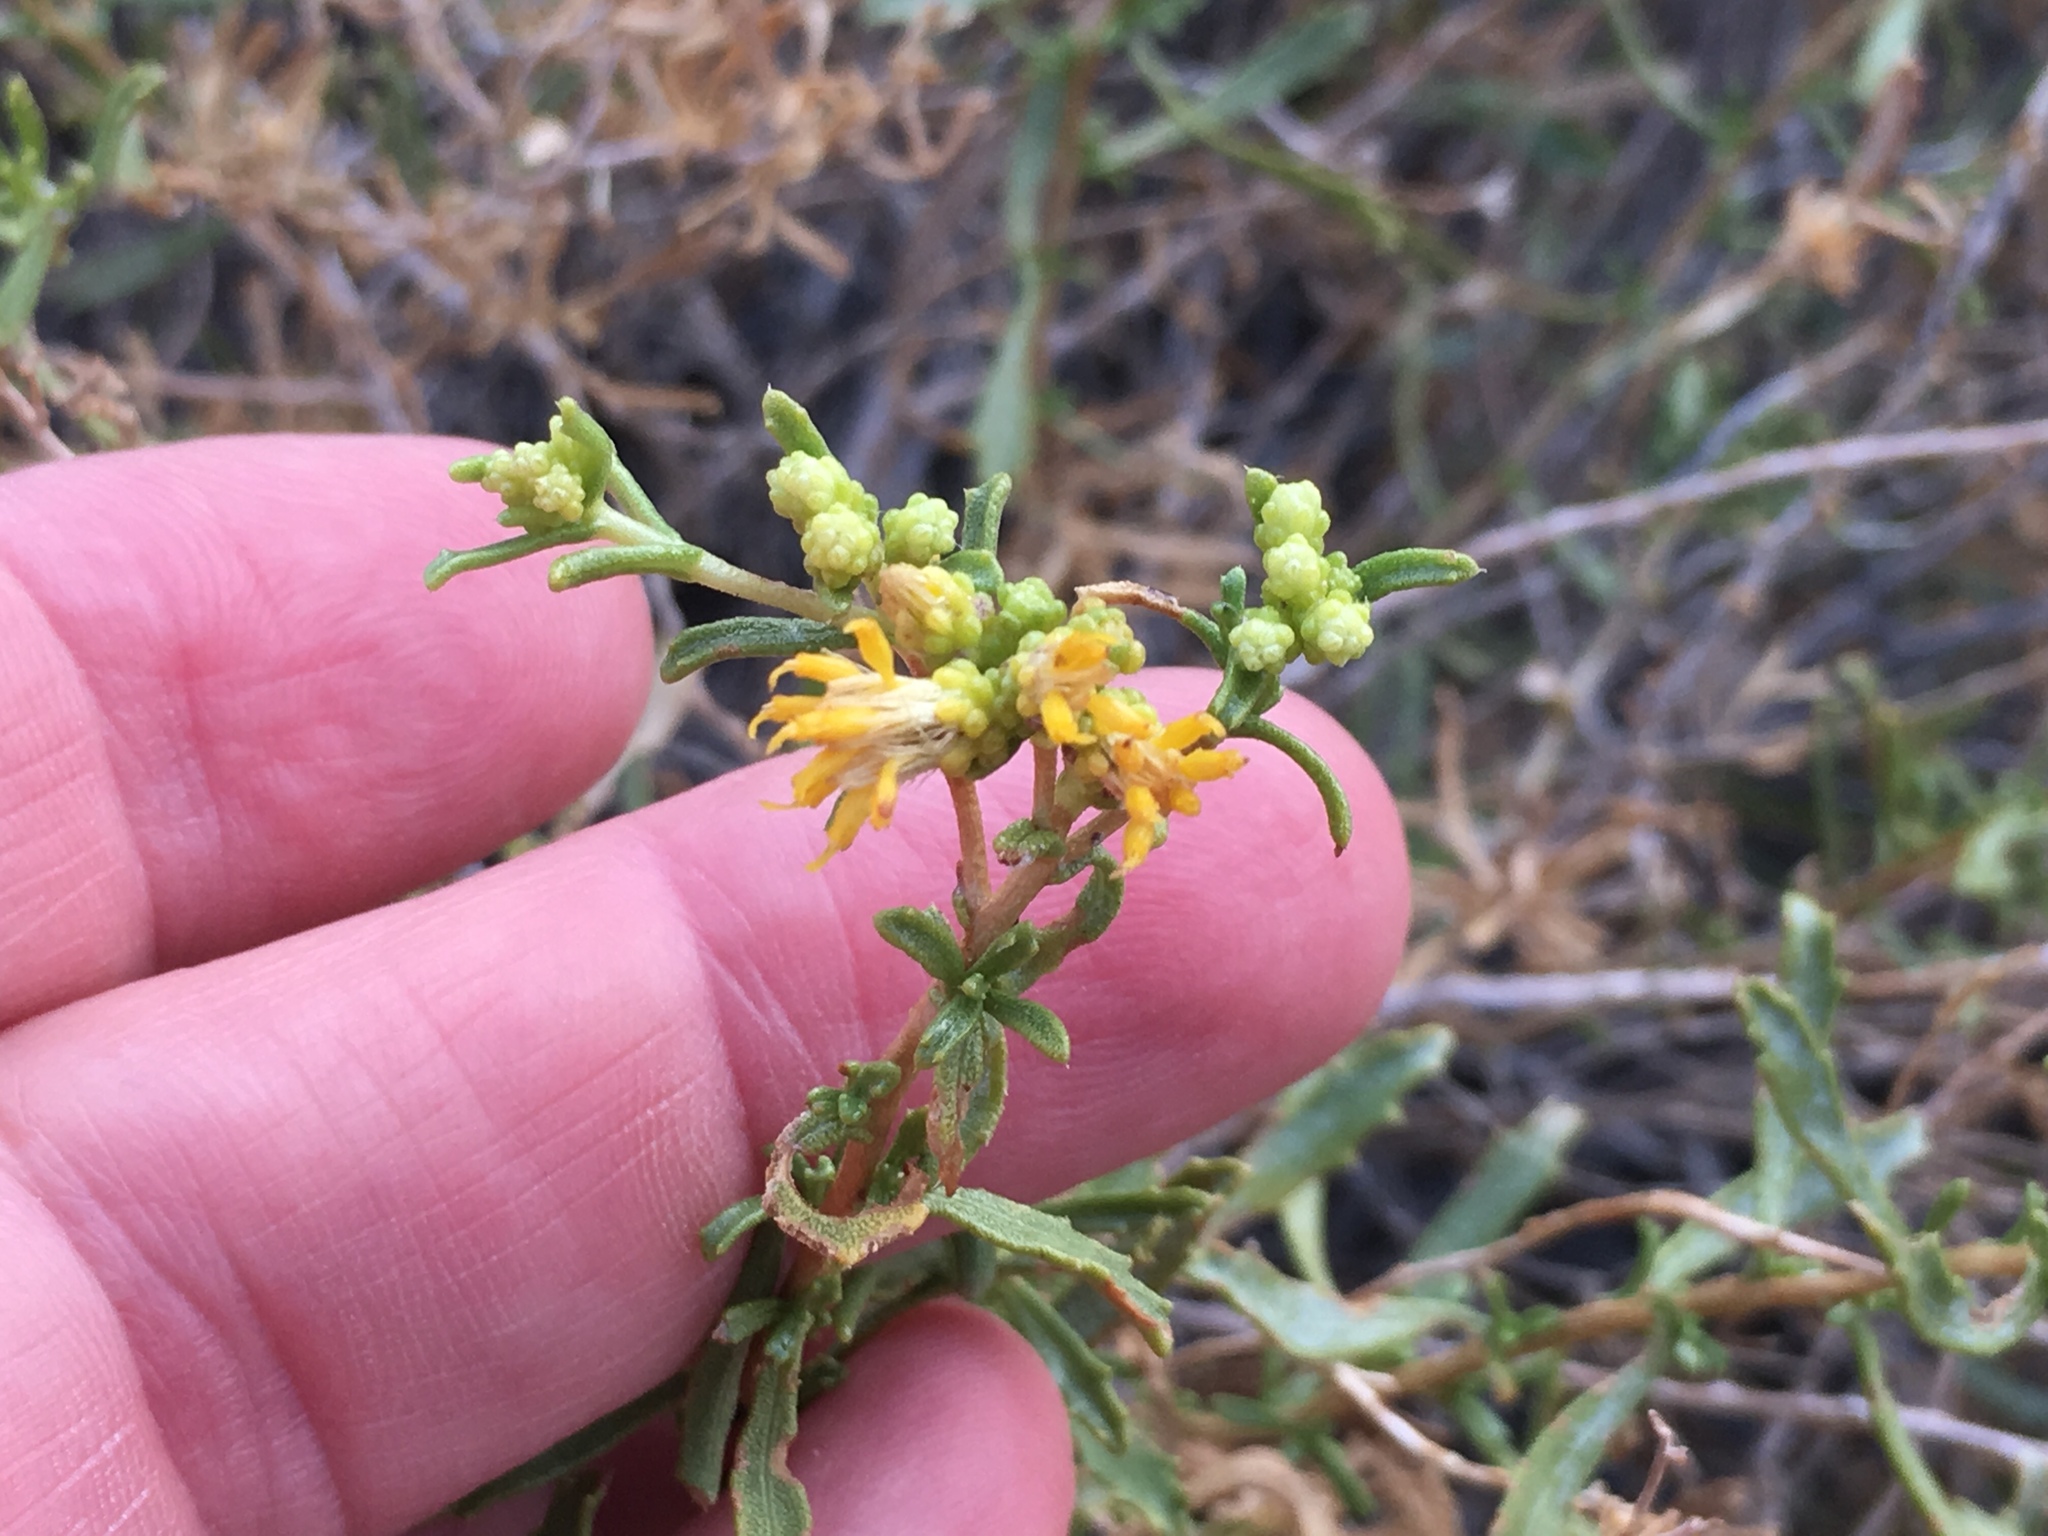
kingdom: Plantae
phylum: Tracheophyta
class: Magnoliopsida
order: Asterales
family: Asteraceae
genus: Isocoma
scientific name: Isocoma acradenia
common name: Alkali jimmyweed
